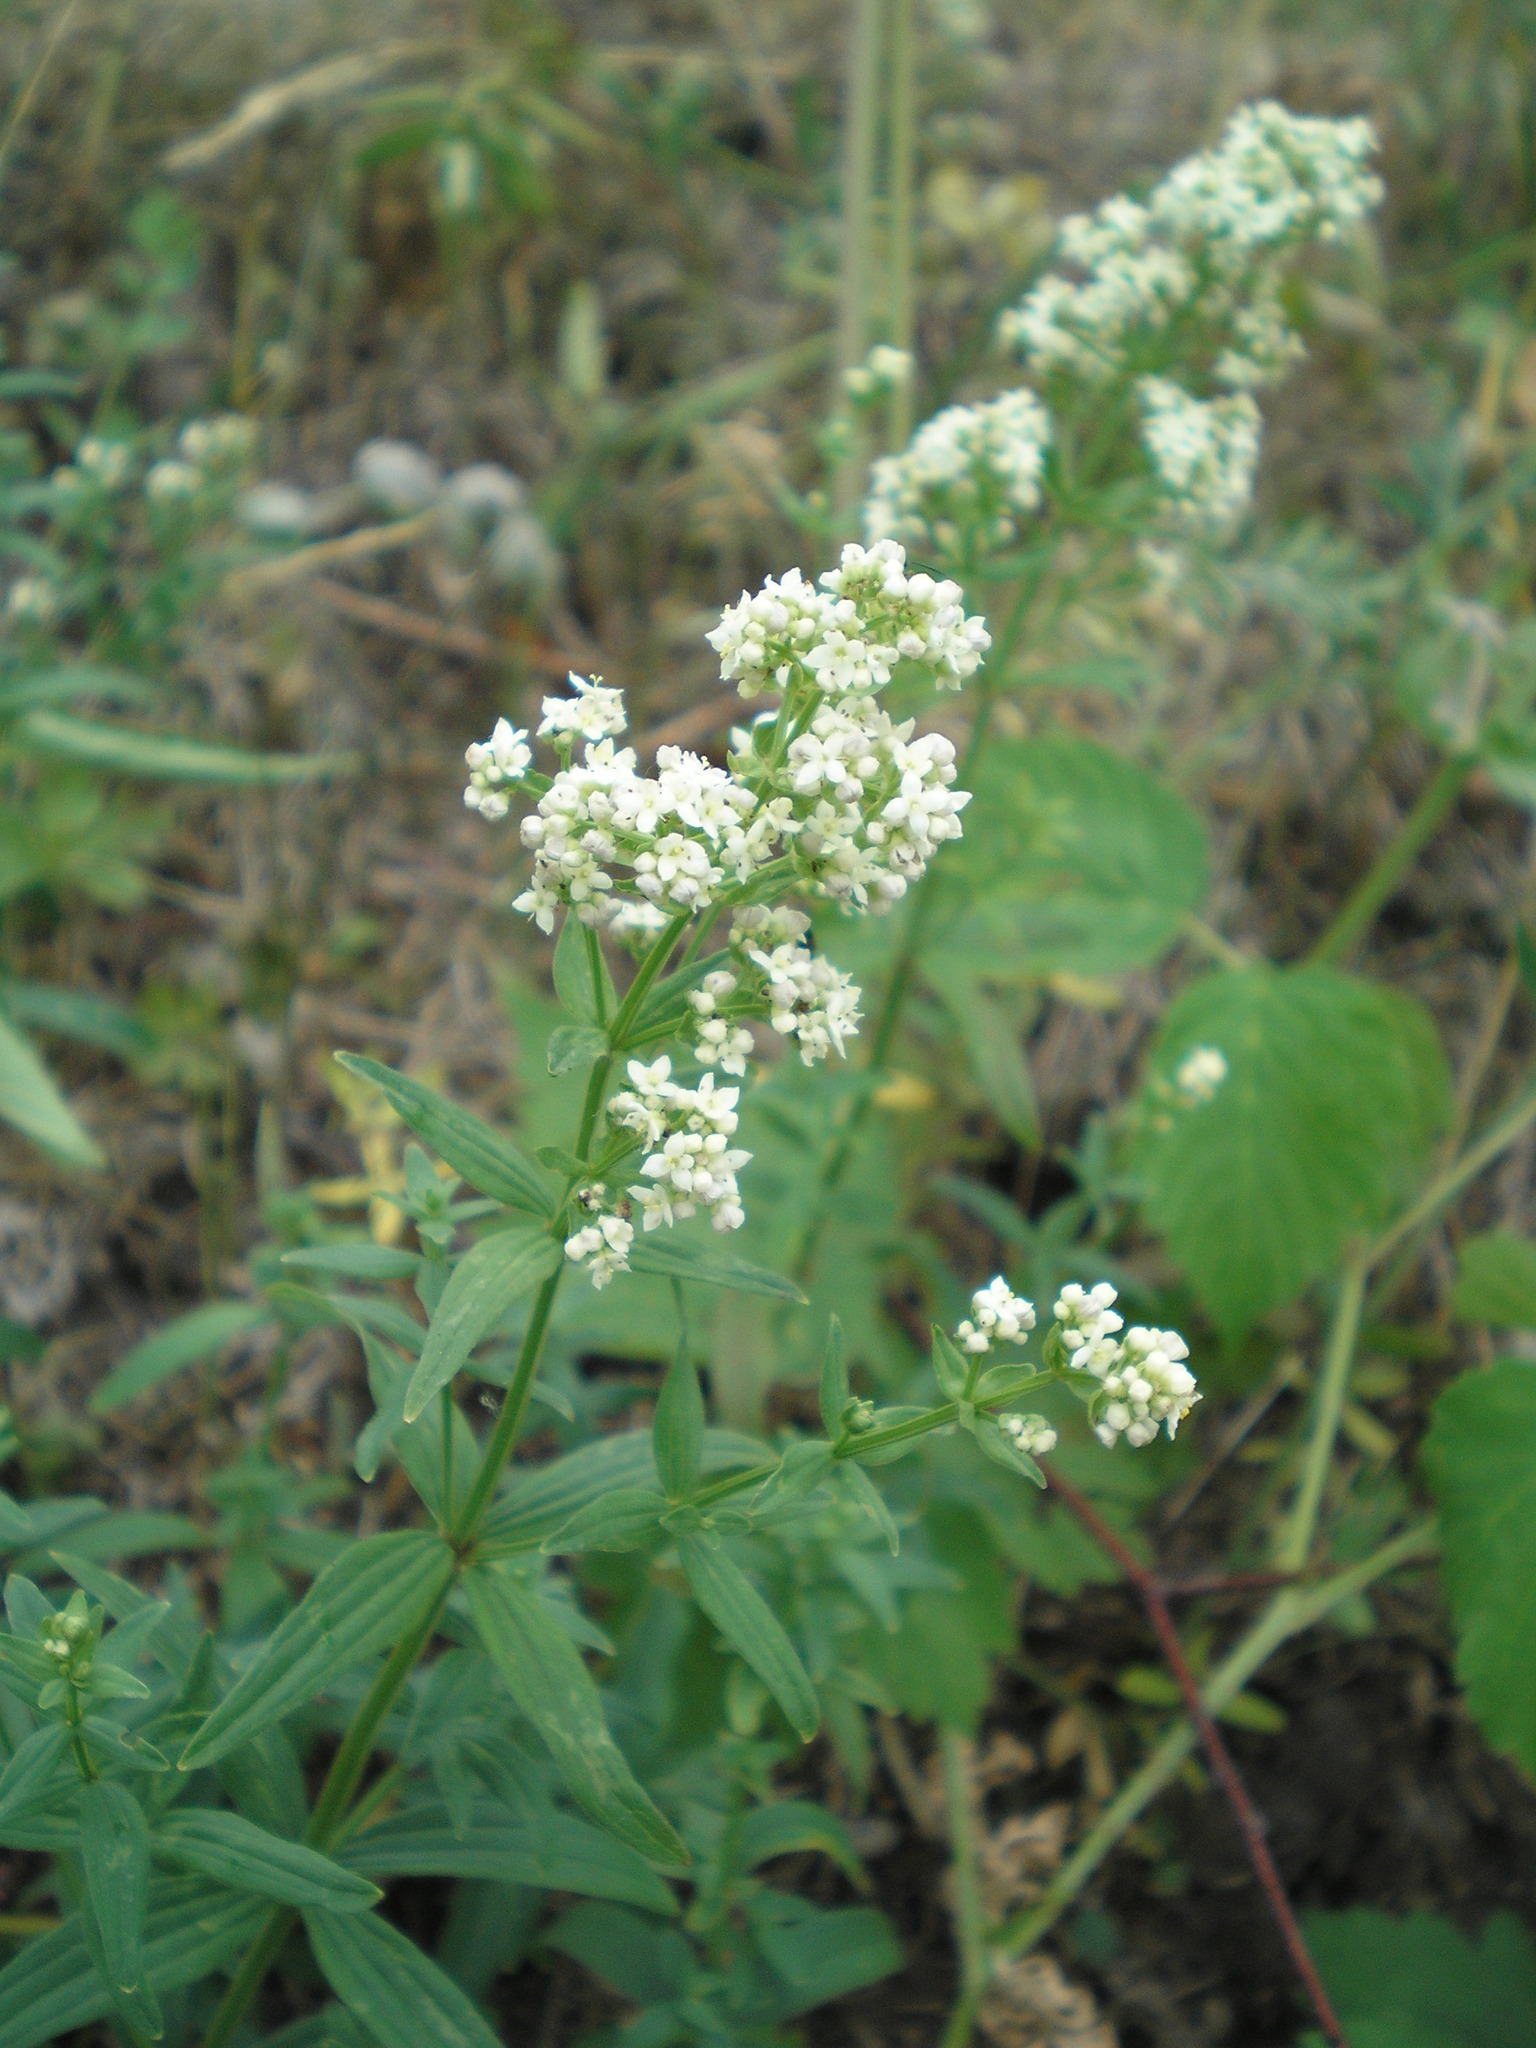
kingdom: Plantae
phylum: Tracheophyta
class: Magnoliopsida
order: Gentianales
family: Rubiaceae
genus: Galium
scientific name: Galium boreale
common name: Northern bedstraw
